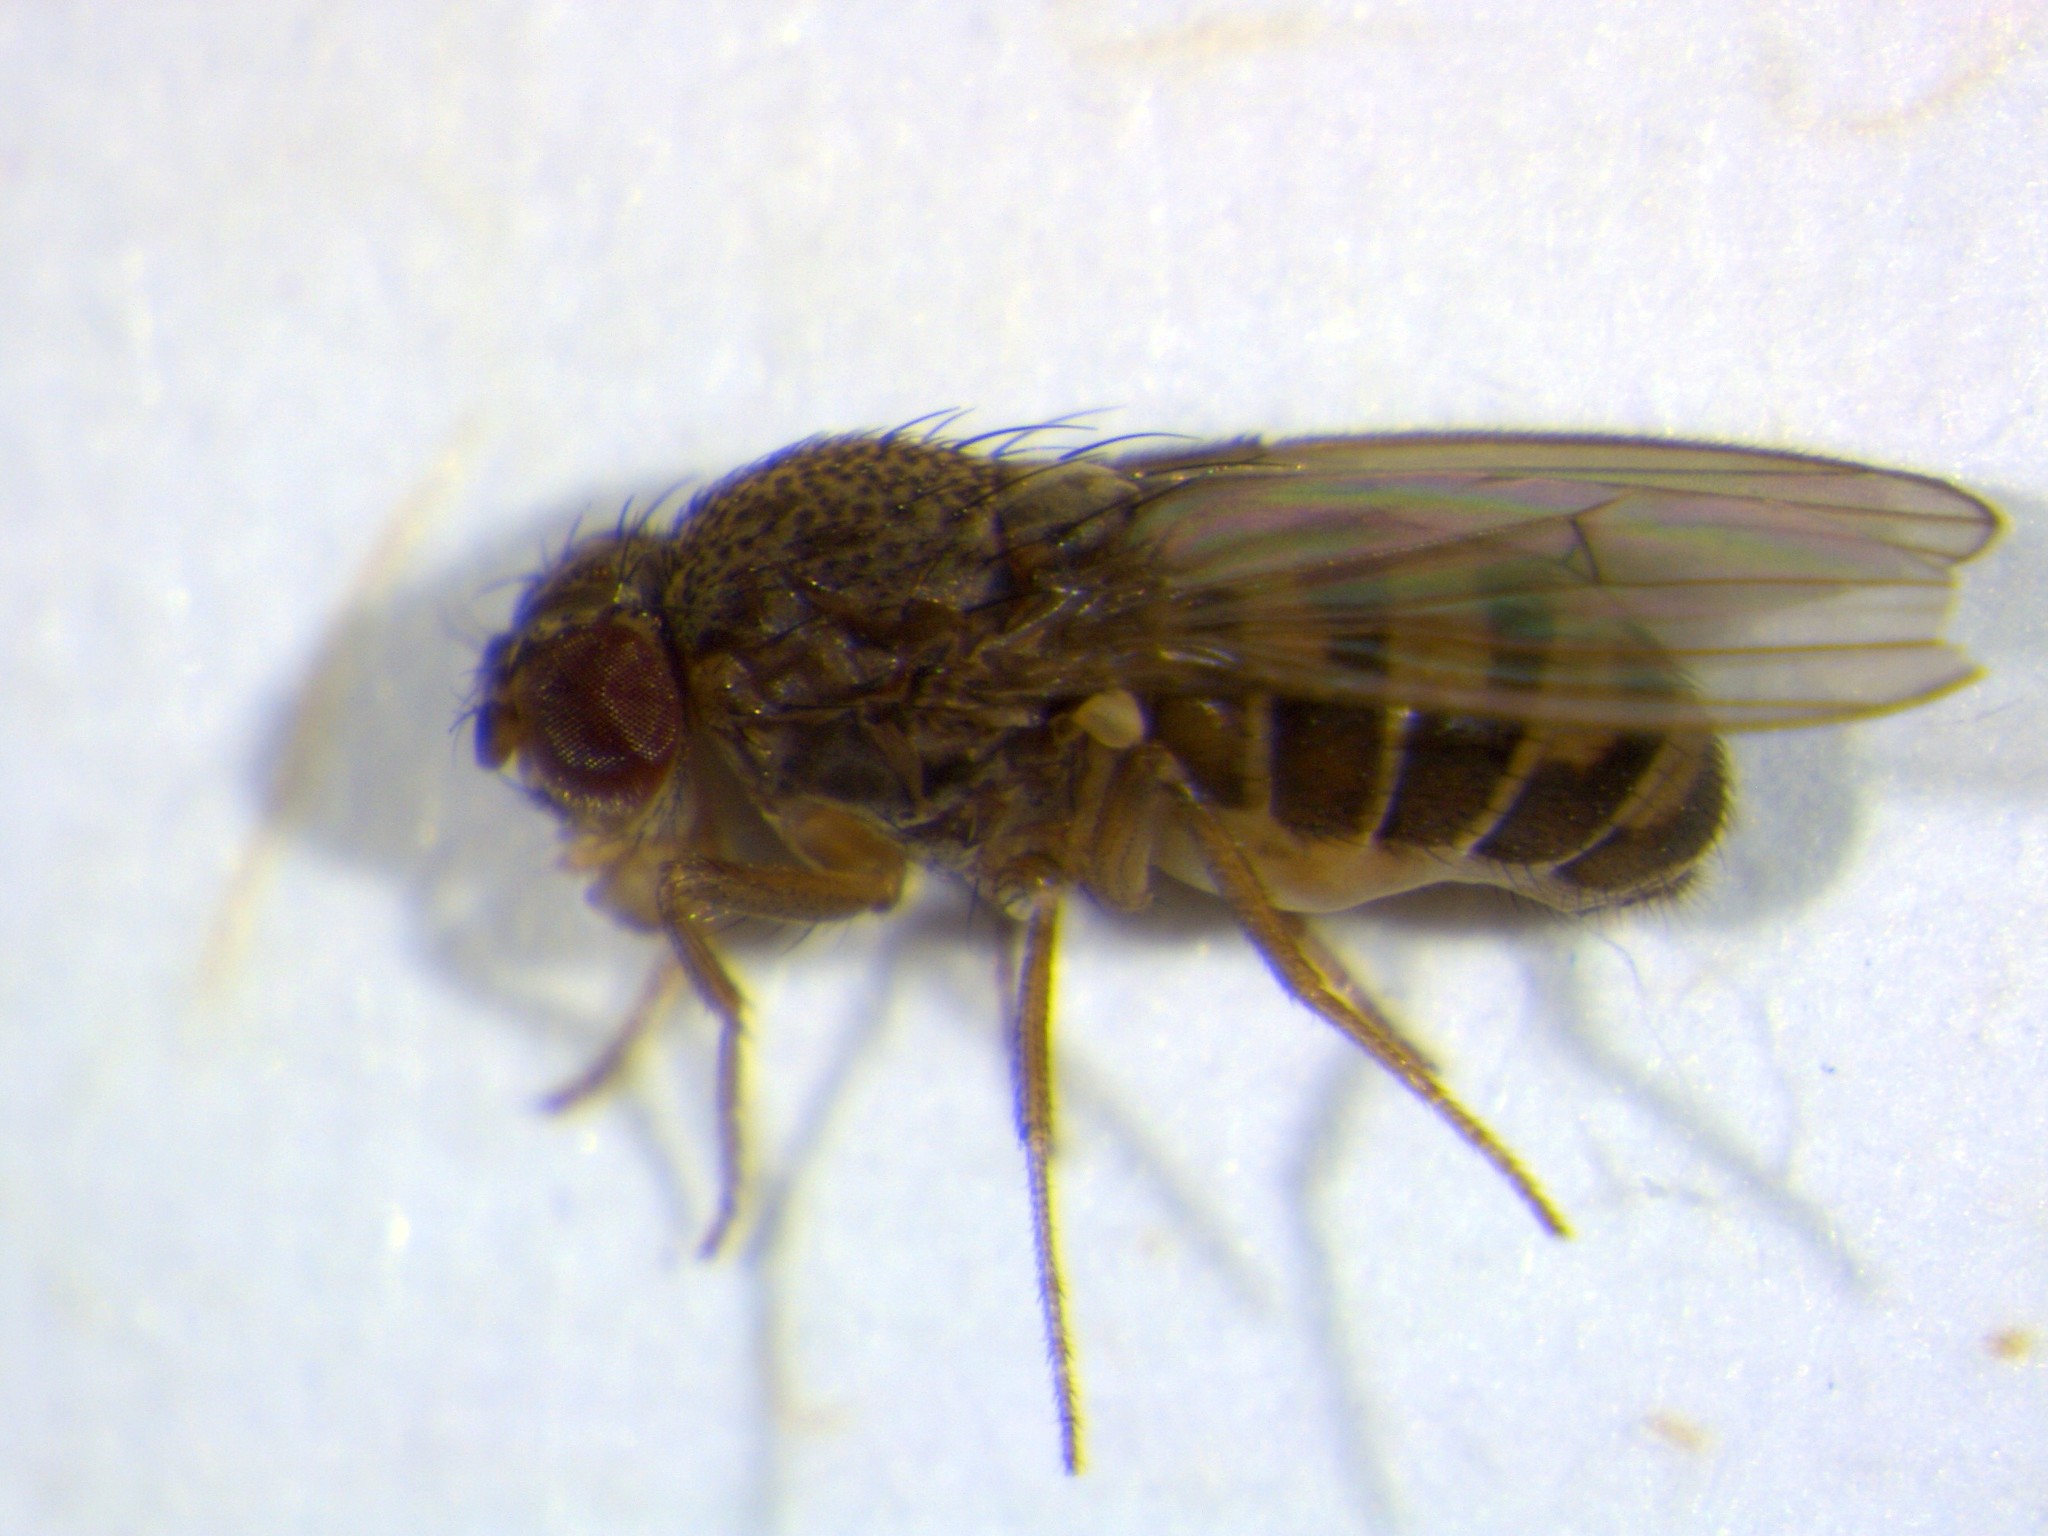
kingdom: Animalia
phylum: Arthropoda
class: Insecta
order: Diptera
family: Drosophilidae
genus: Drosophila
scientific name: Drosophila hydei
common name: Pomace fly
